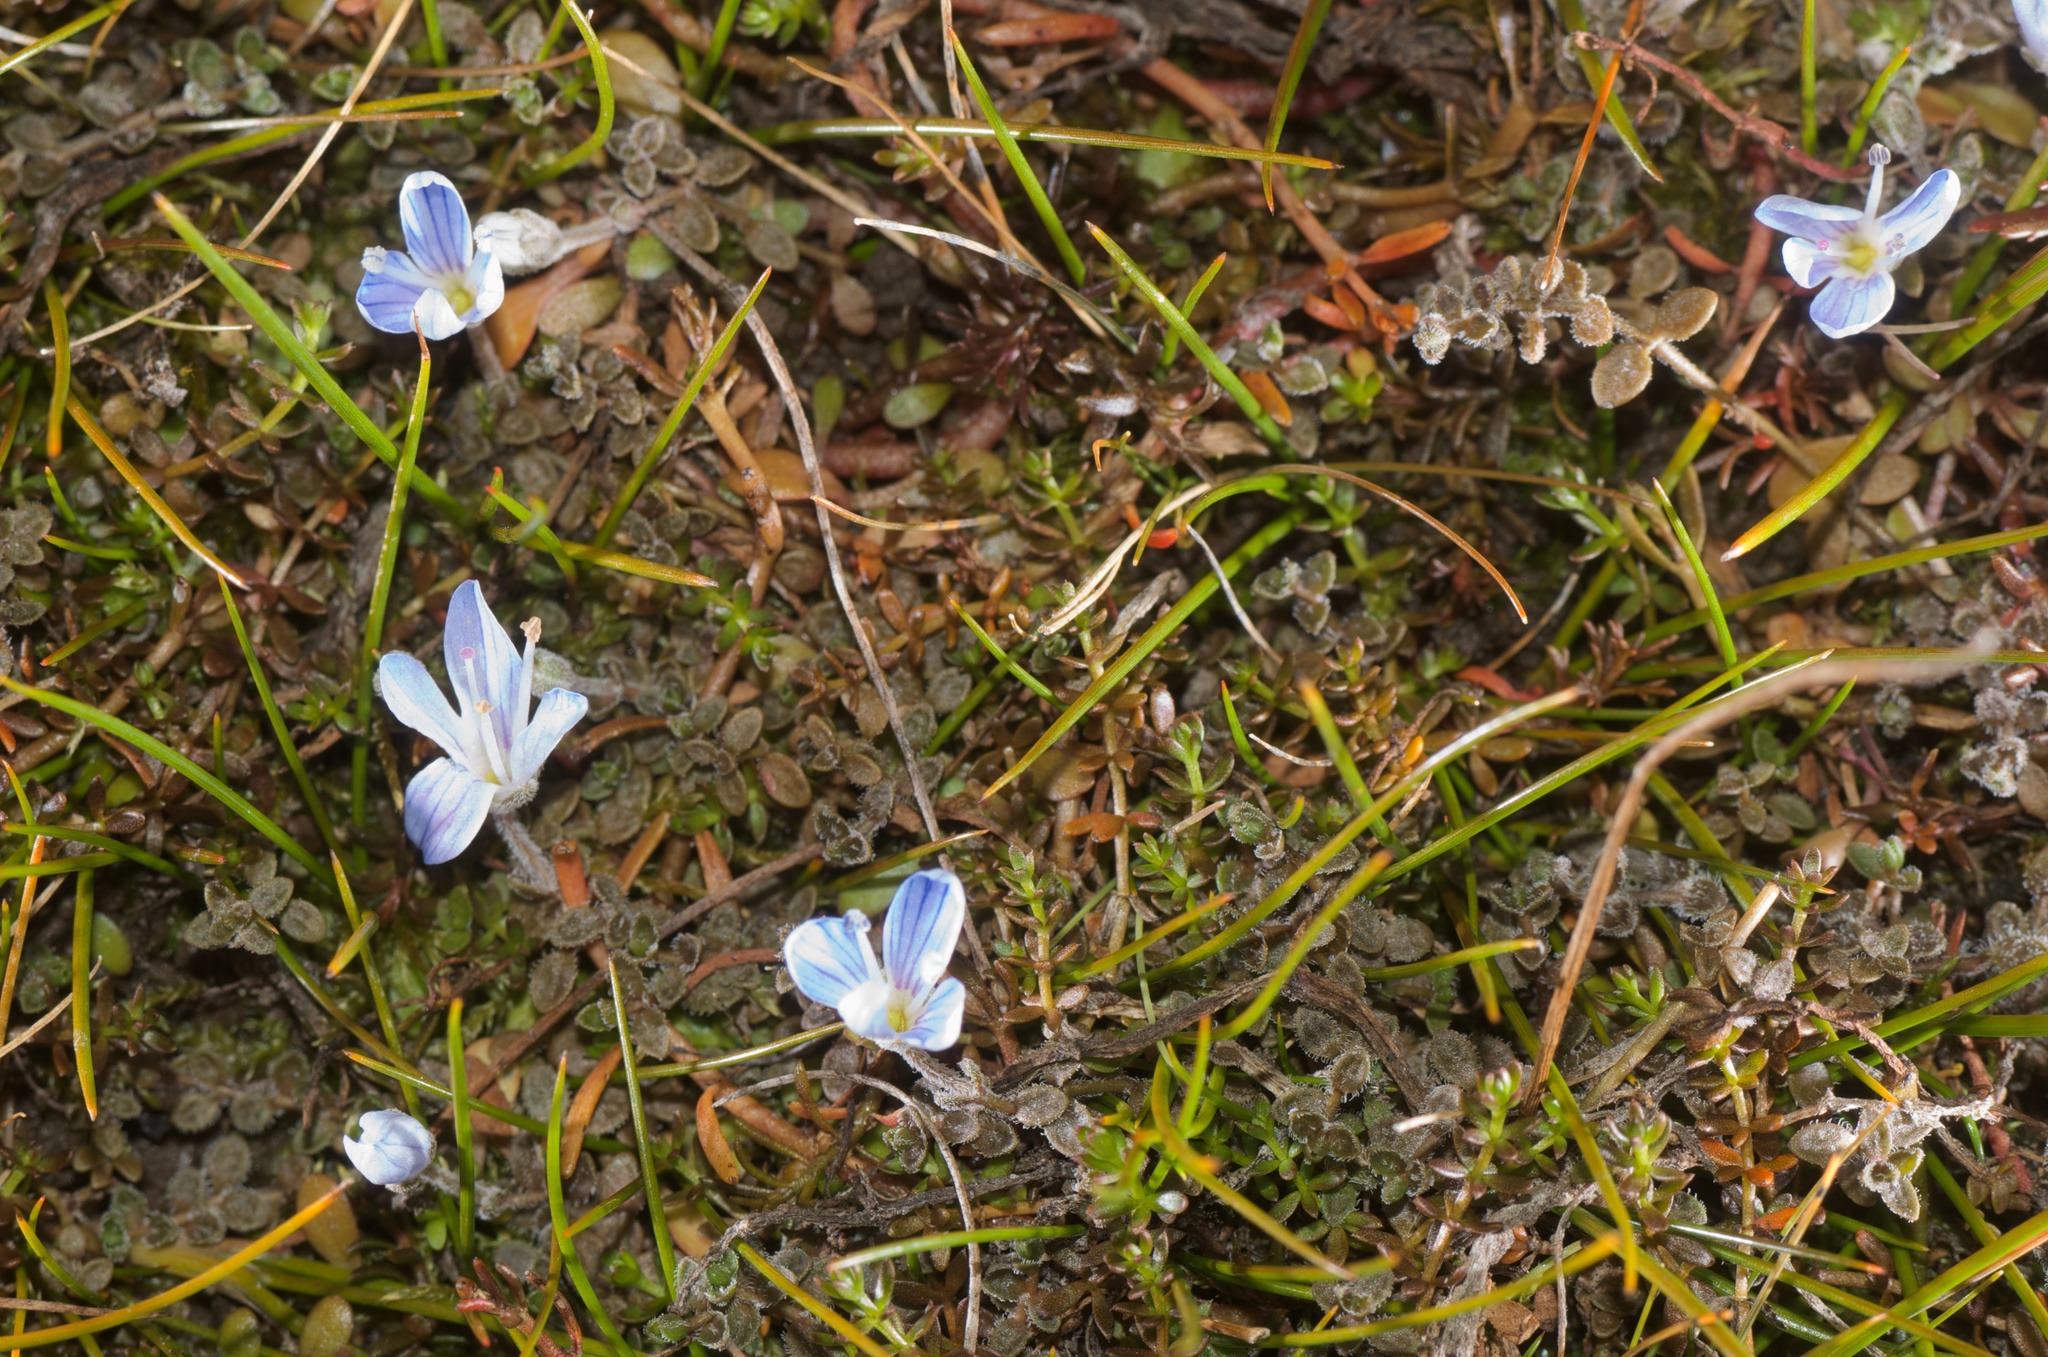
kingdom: Plantae
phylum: Tracheophyta
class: Magnoliopsida
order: Lamiales
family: Plantaginaceae
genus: Veronica
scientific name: Veronica lilliputiana
